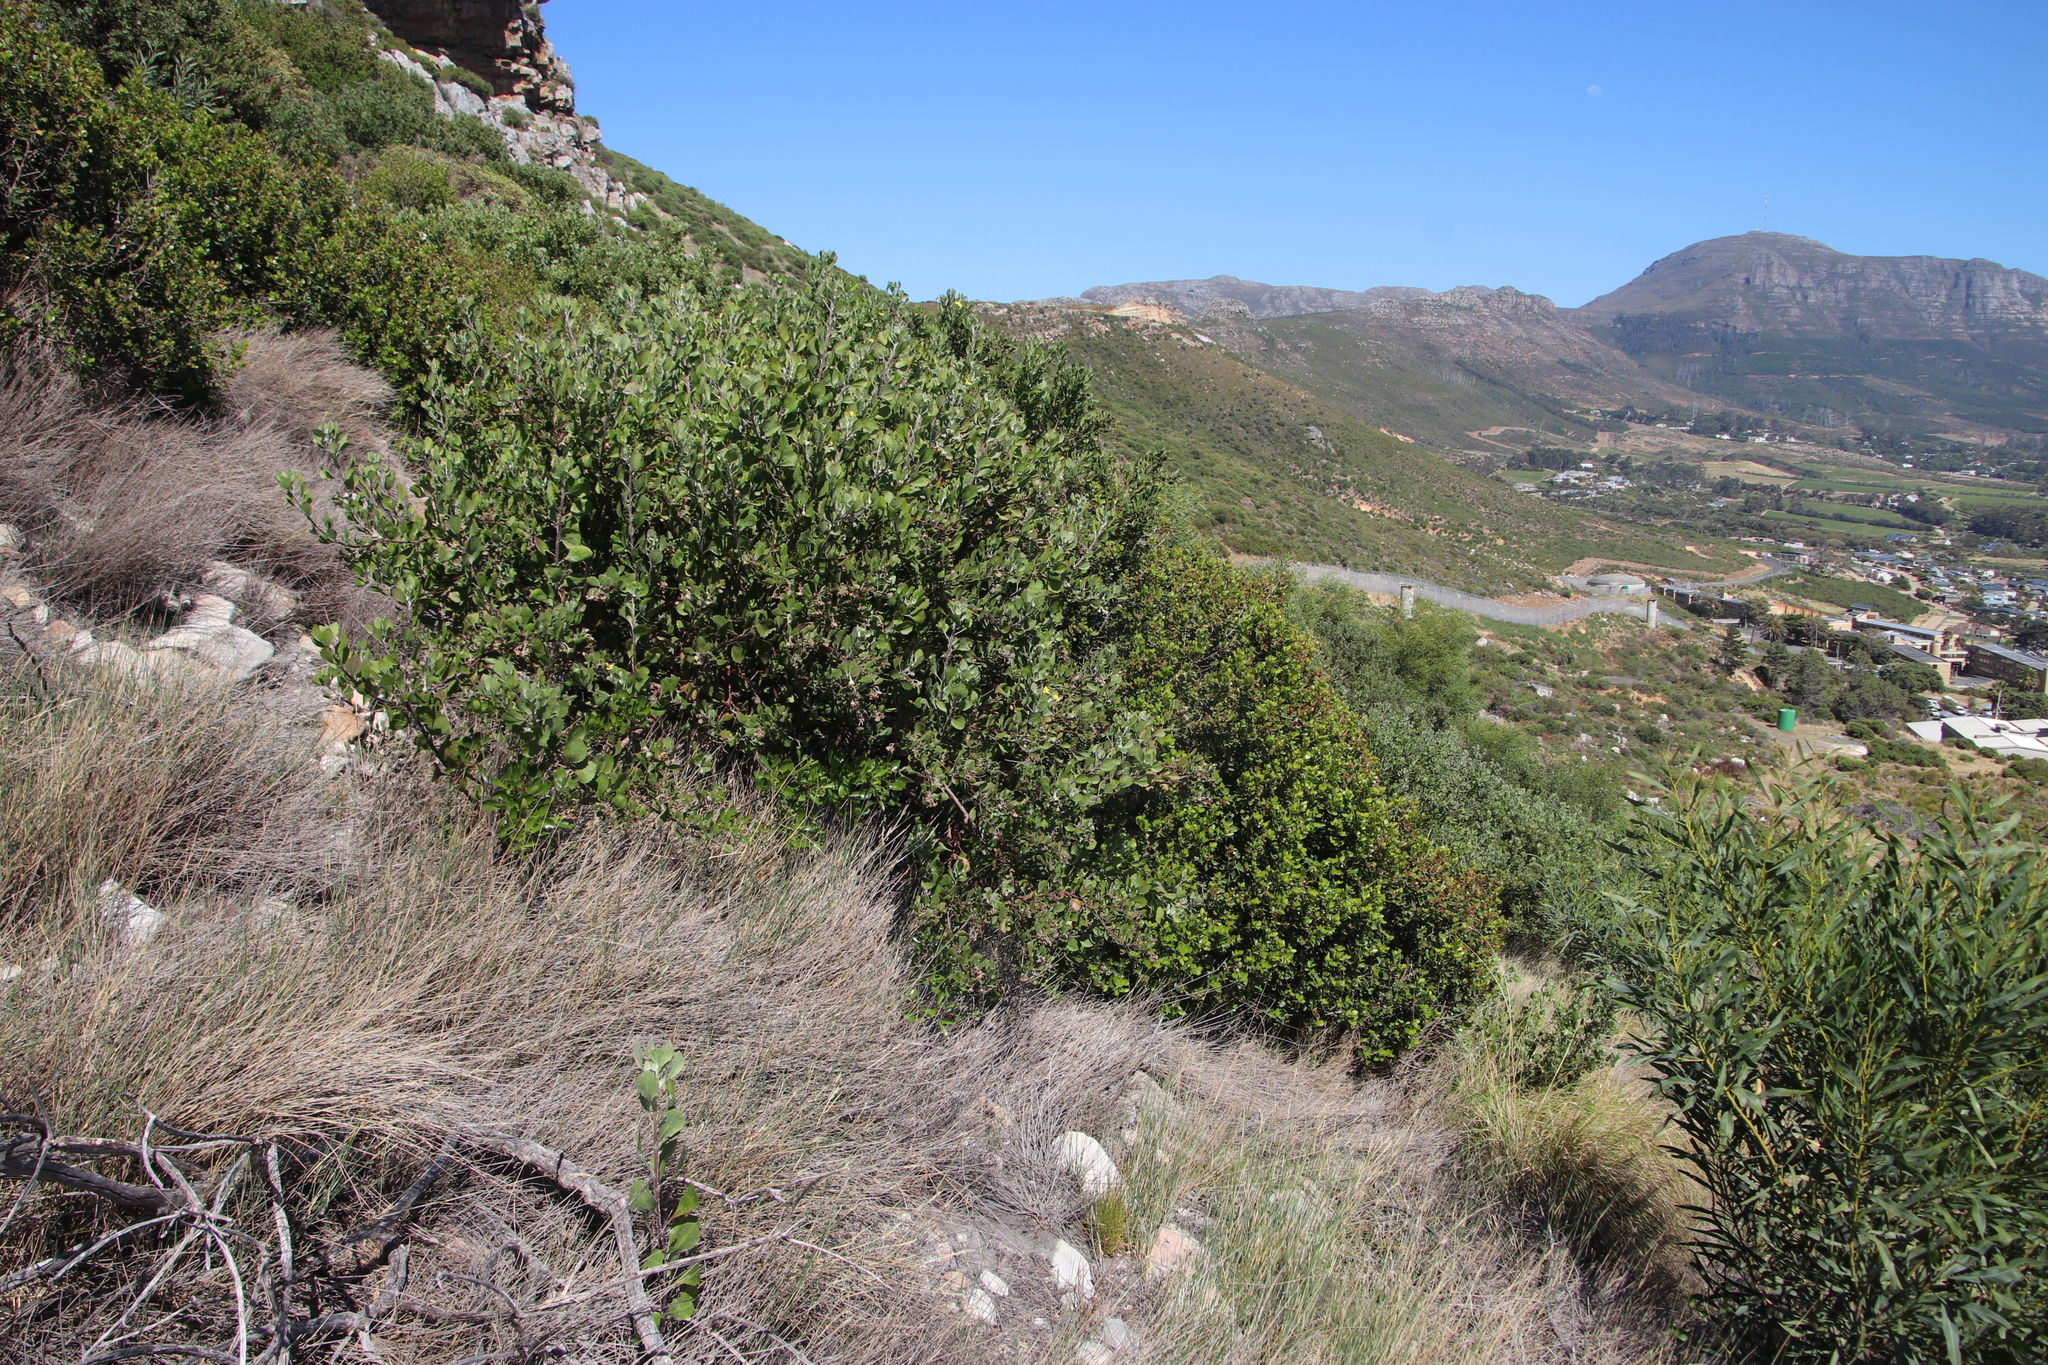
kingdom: Plantae
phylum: Tracheophyta
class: Magnoliopsida
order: Asterales
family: Asteraceae
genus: Osteospermum
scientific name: Osteospermum moniliferum
